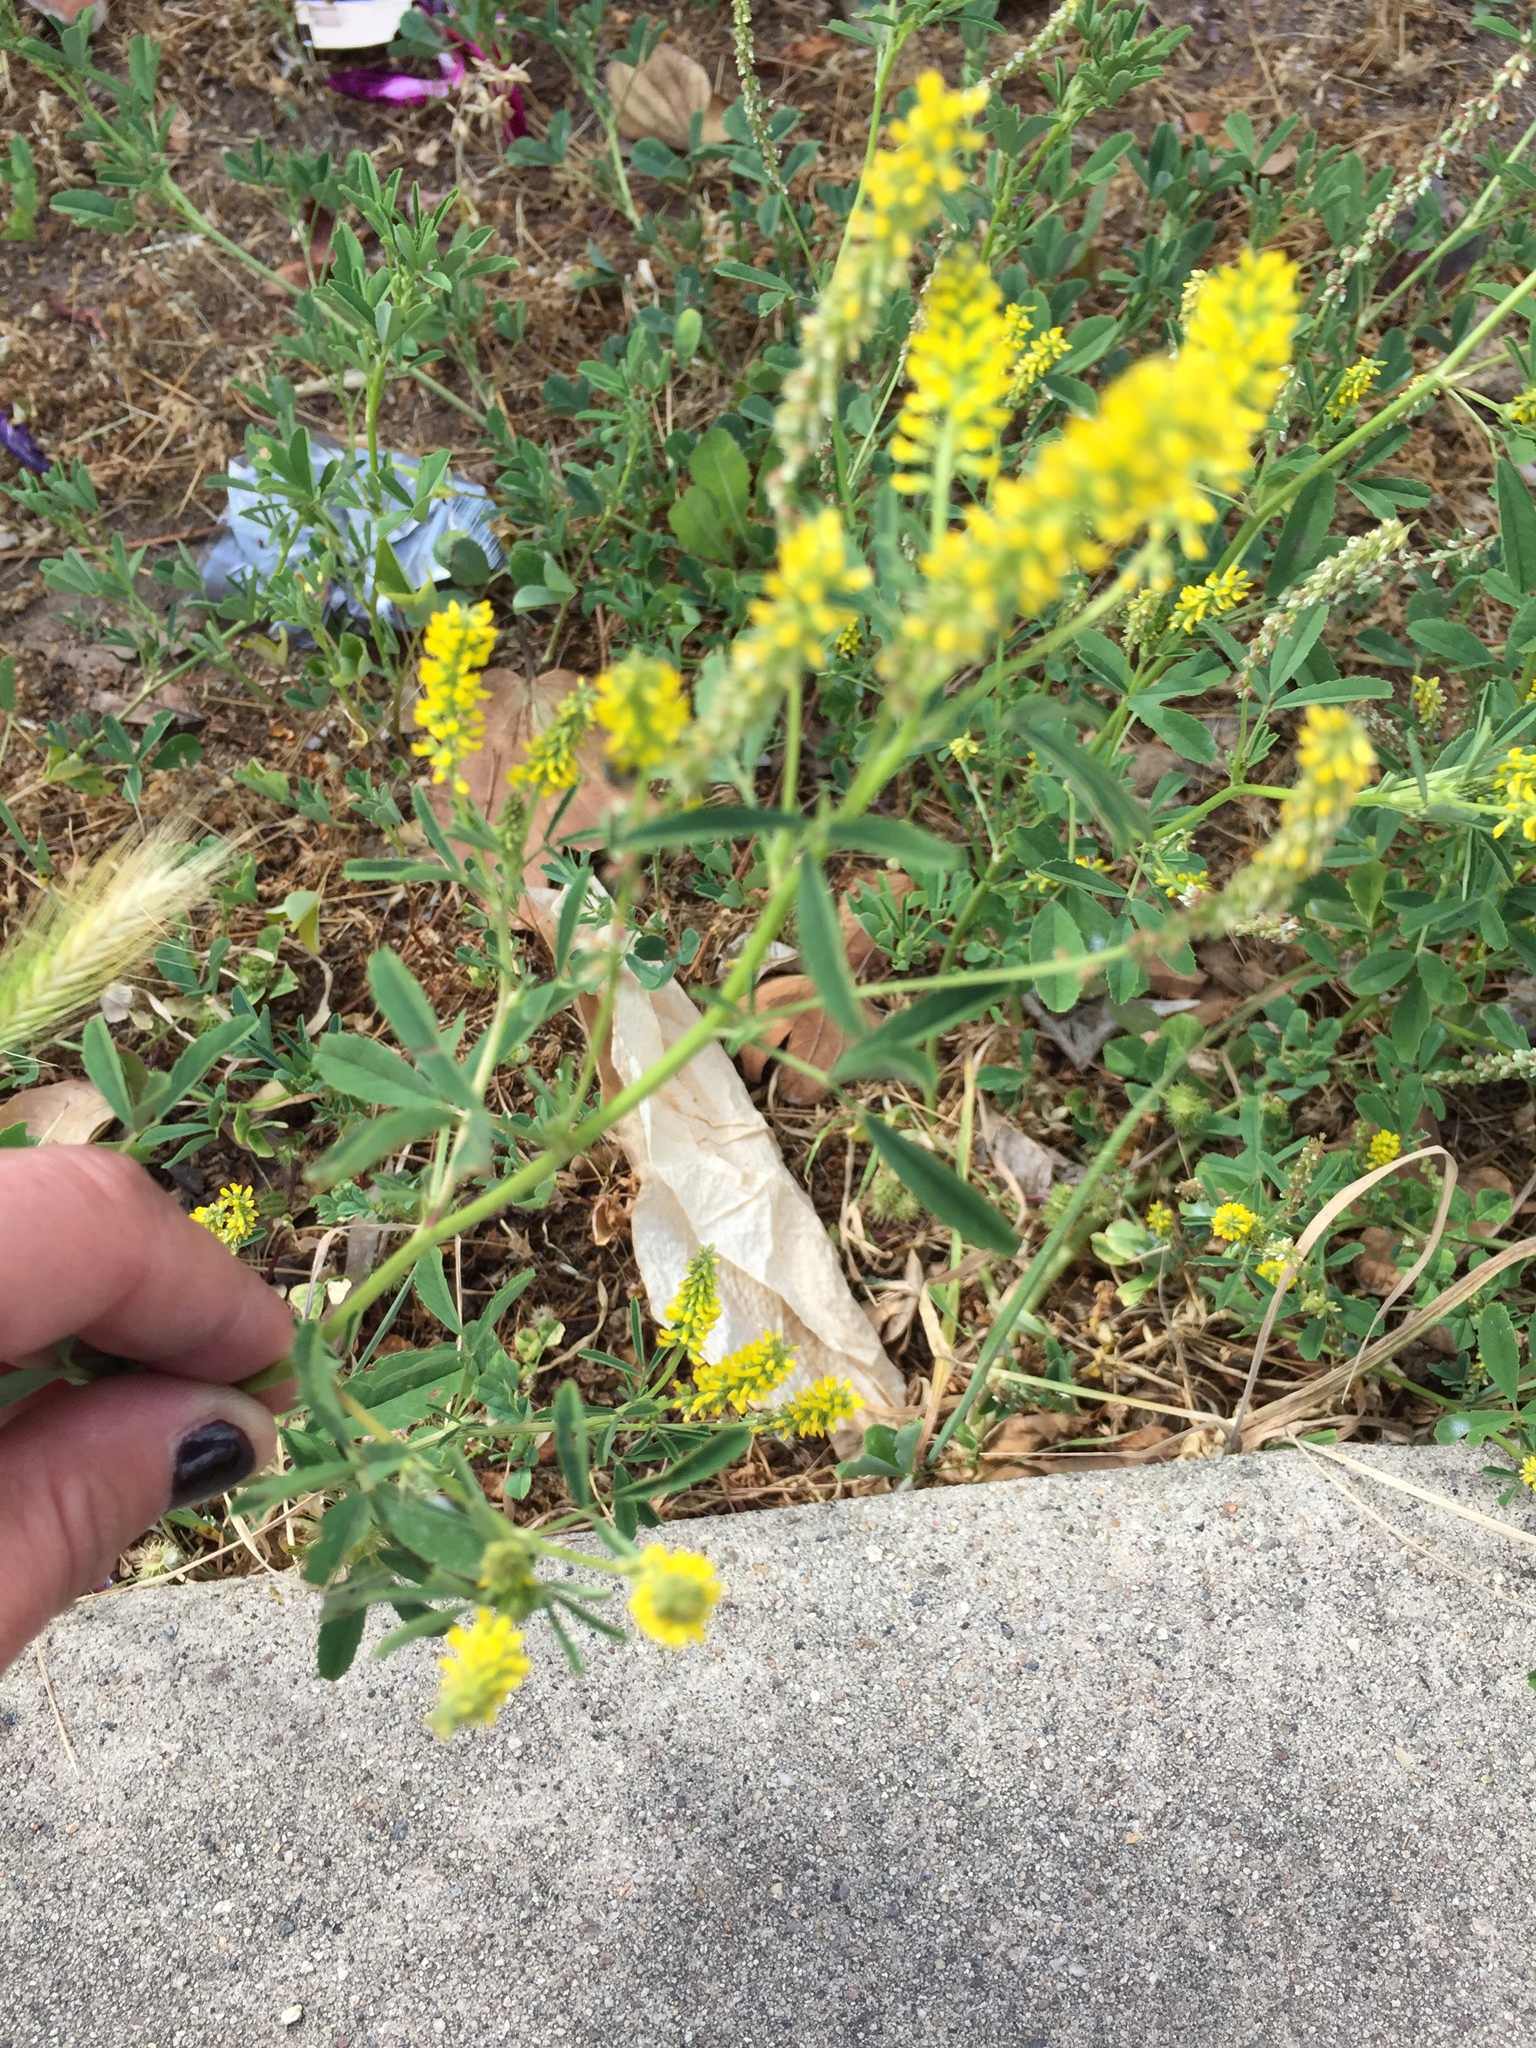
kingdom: Plantae
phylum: Tracheophyta
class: Magnoliopsida
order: Fabales
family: Fabaceae
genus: Melilotus
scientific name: Melilotus indicus
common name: Small melilot
